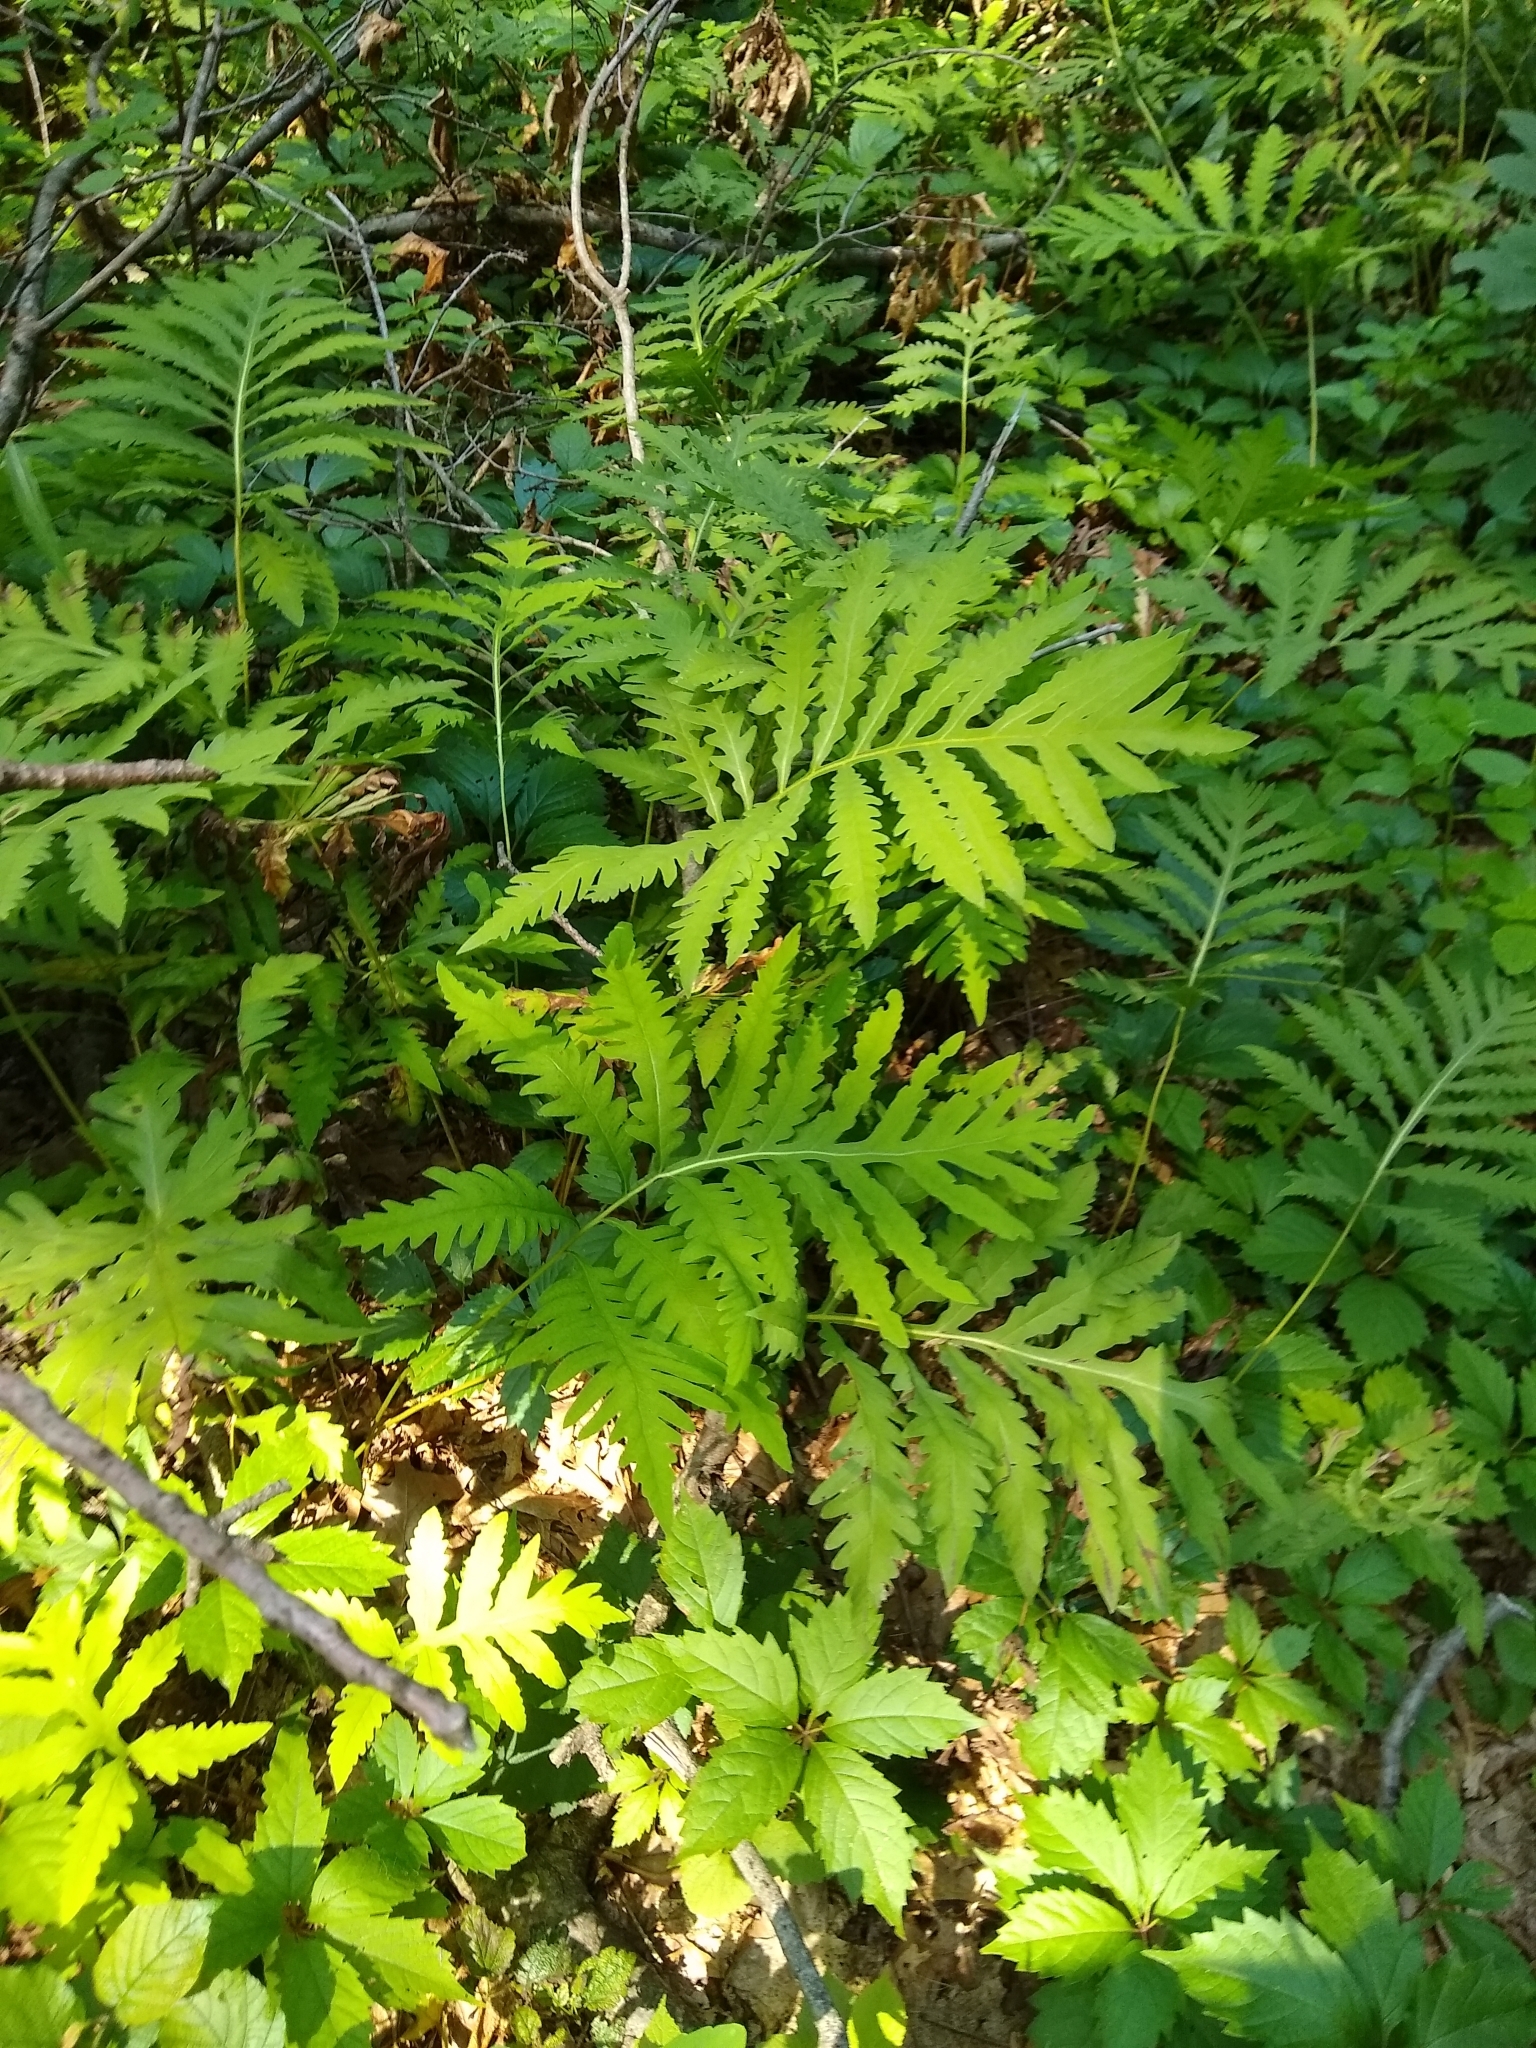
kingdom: Plantae
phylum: Tracheophyta
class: Polypodiopsida
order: Polypodiales
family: Onocleaceae
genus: Onoclea
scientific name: Onoclea sensibilis
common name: Sensitive fern
